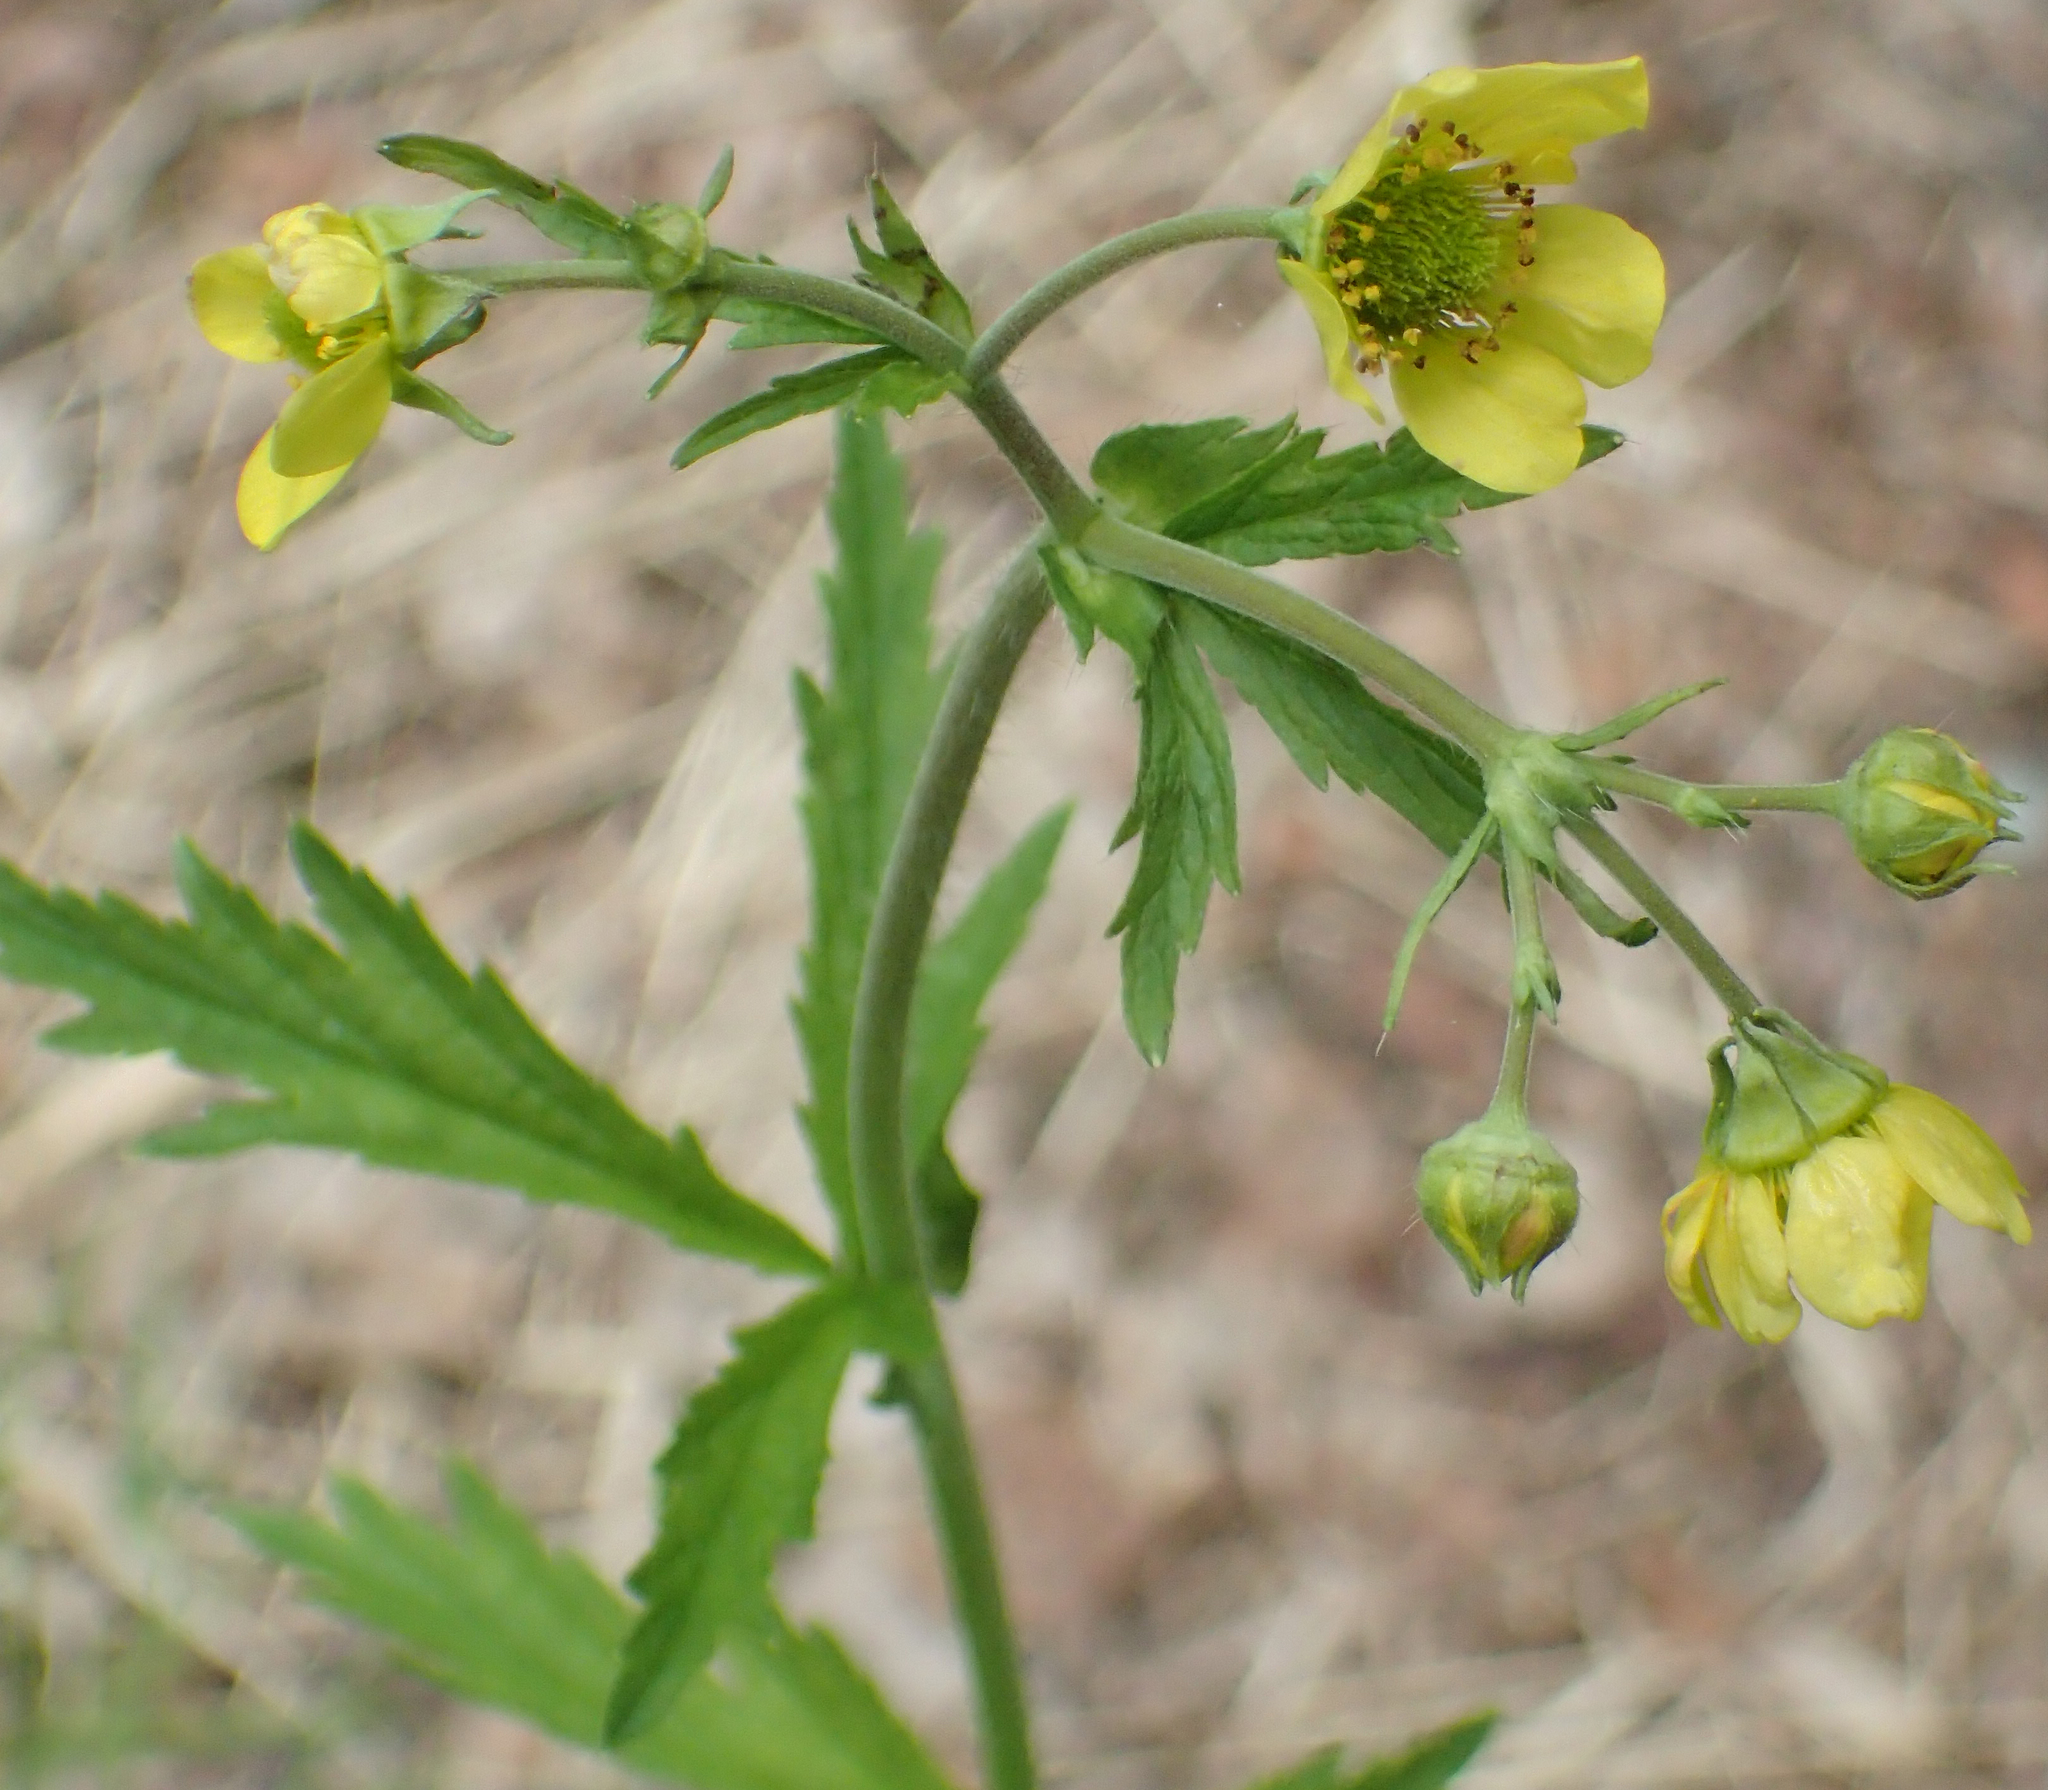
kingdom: Plantae
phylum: Tracheophyta
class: Magnoliopsida
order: Rosales
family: Rosaceae
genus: Geum
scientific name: Geum macrophyllum
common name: Large-leaved avens
